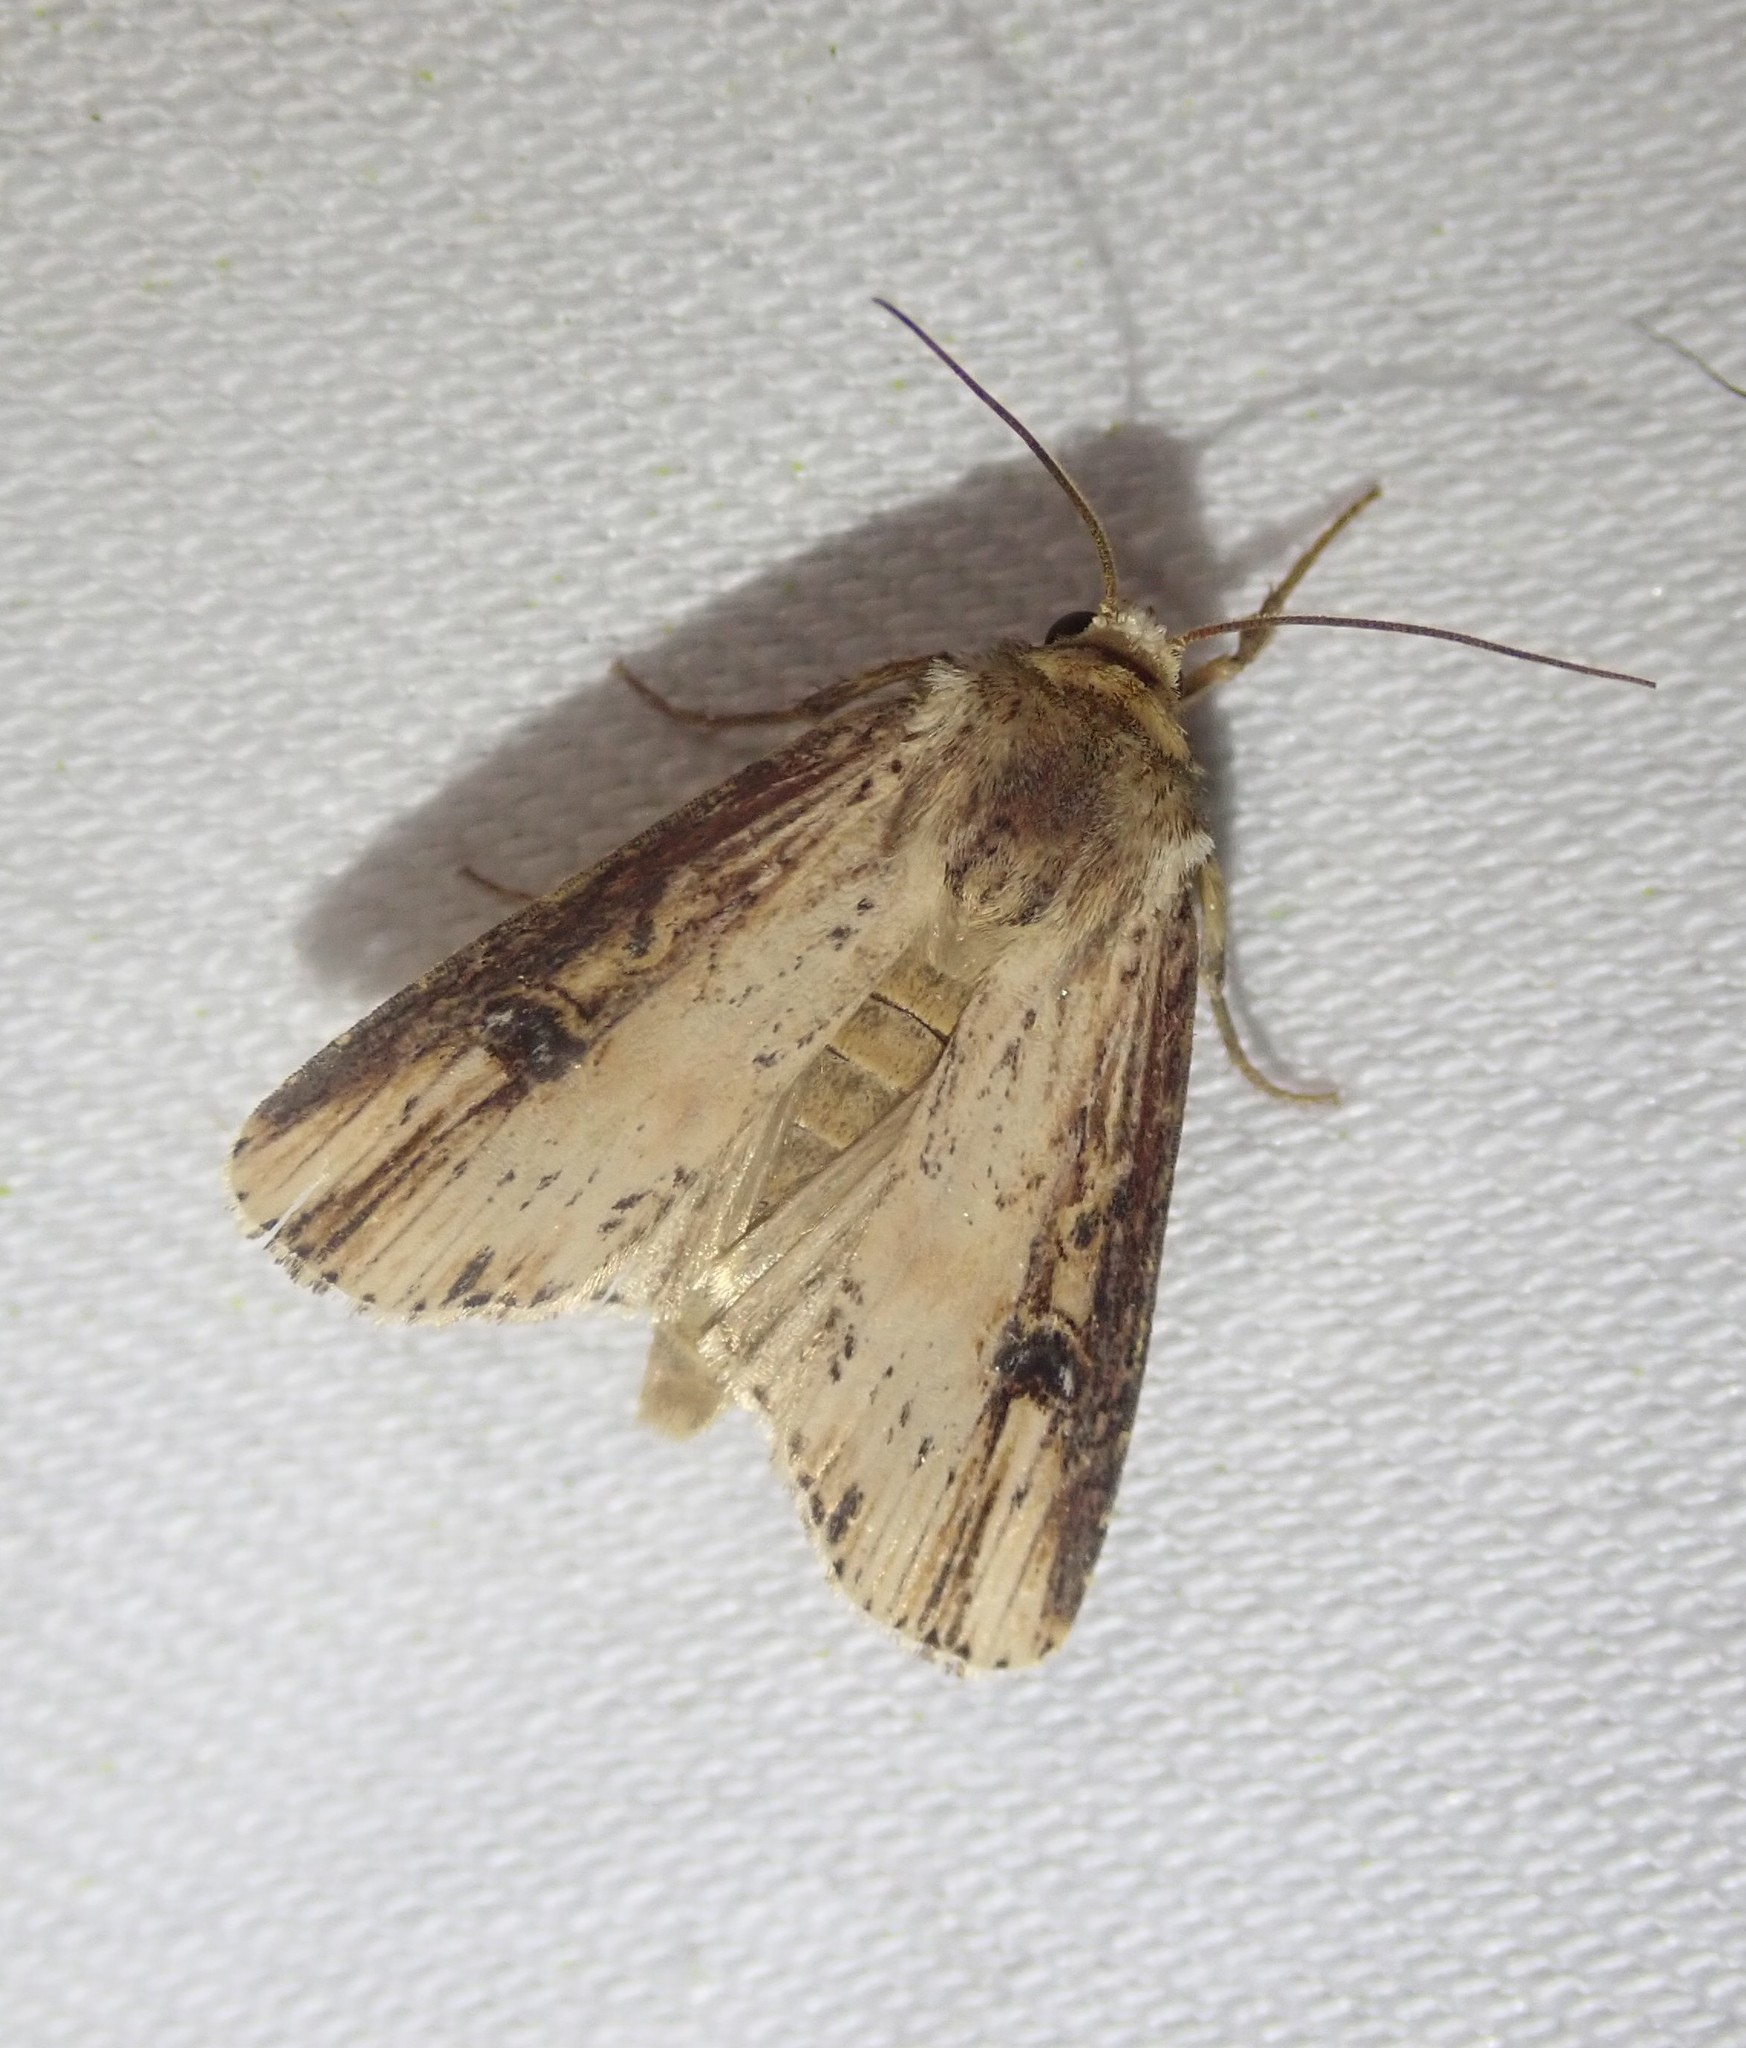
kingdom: Animalia
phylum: Arthropoda
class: Insecta
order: Lepidoptera
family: Noctuidae
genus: Axylia
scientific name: Axylia putris
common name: Flame
